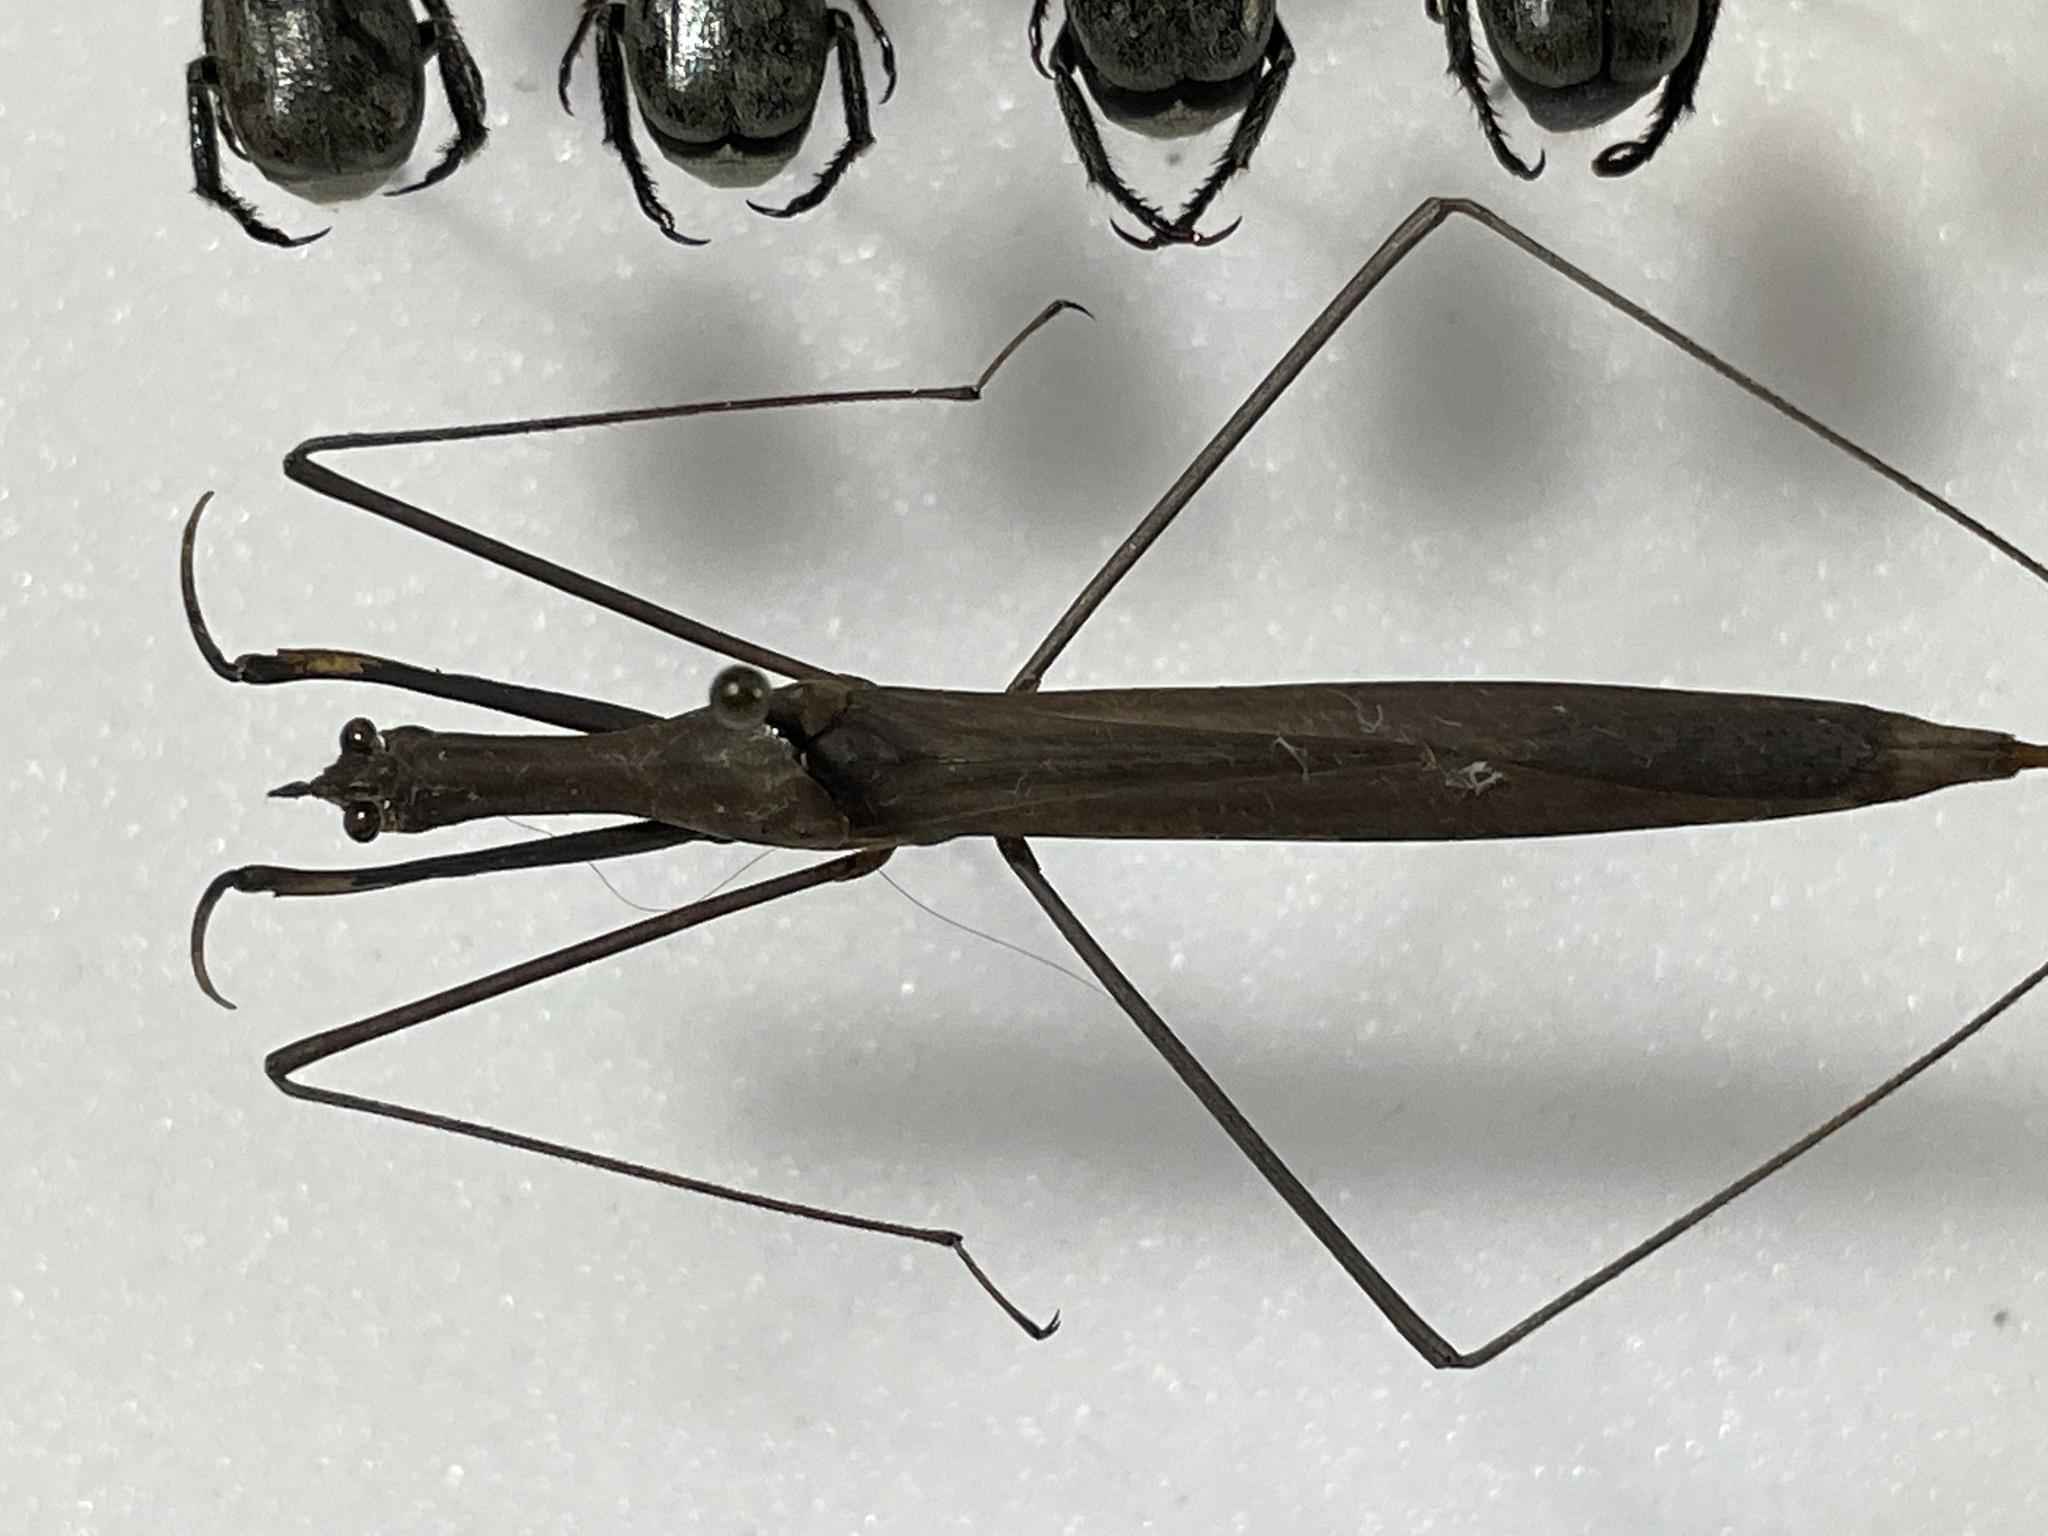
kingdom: Animalia
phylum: Arthropoda
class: Insecta
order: Hemiptera
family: Nepidae
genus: Ranatra
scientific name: Ranatra fusca
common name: Brown waterscorpion
